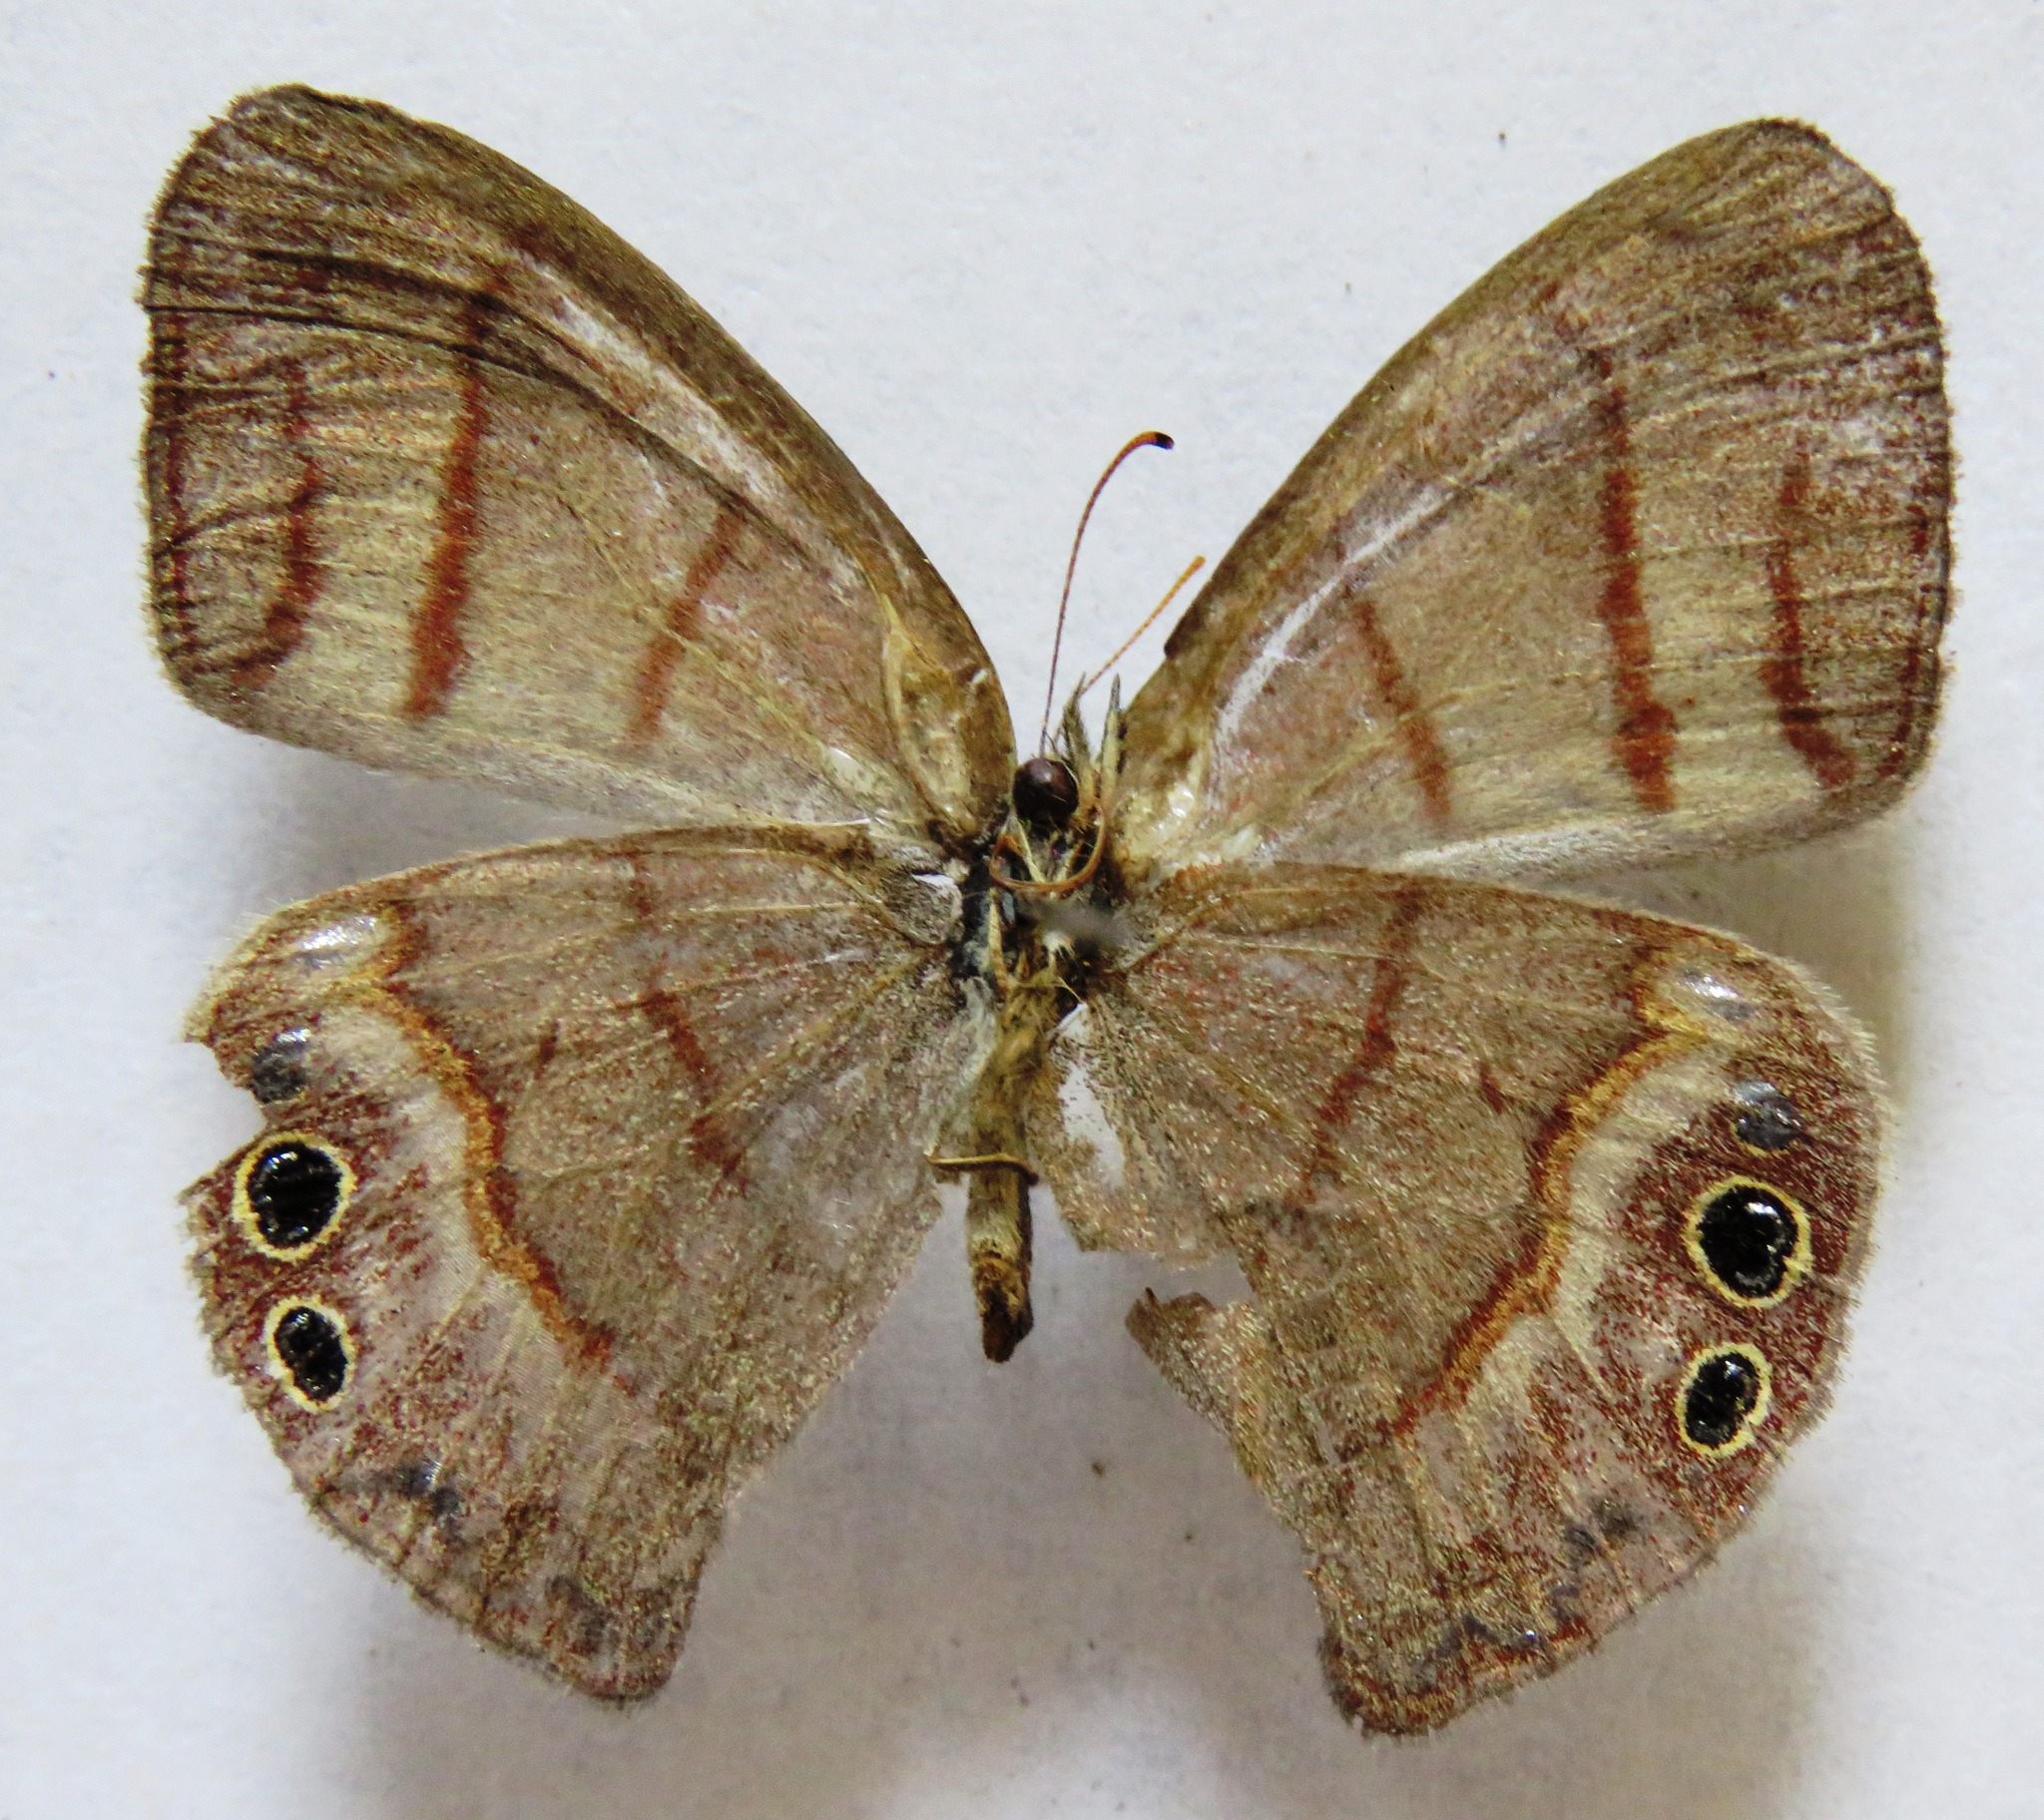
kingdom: Animalia
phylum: Arthropoda
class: Insecta
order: Lepidoptera
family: Nymphalidae
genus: Euptychia
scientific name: Euptychia
